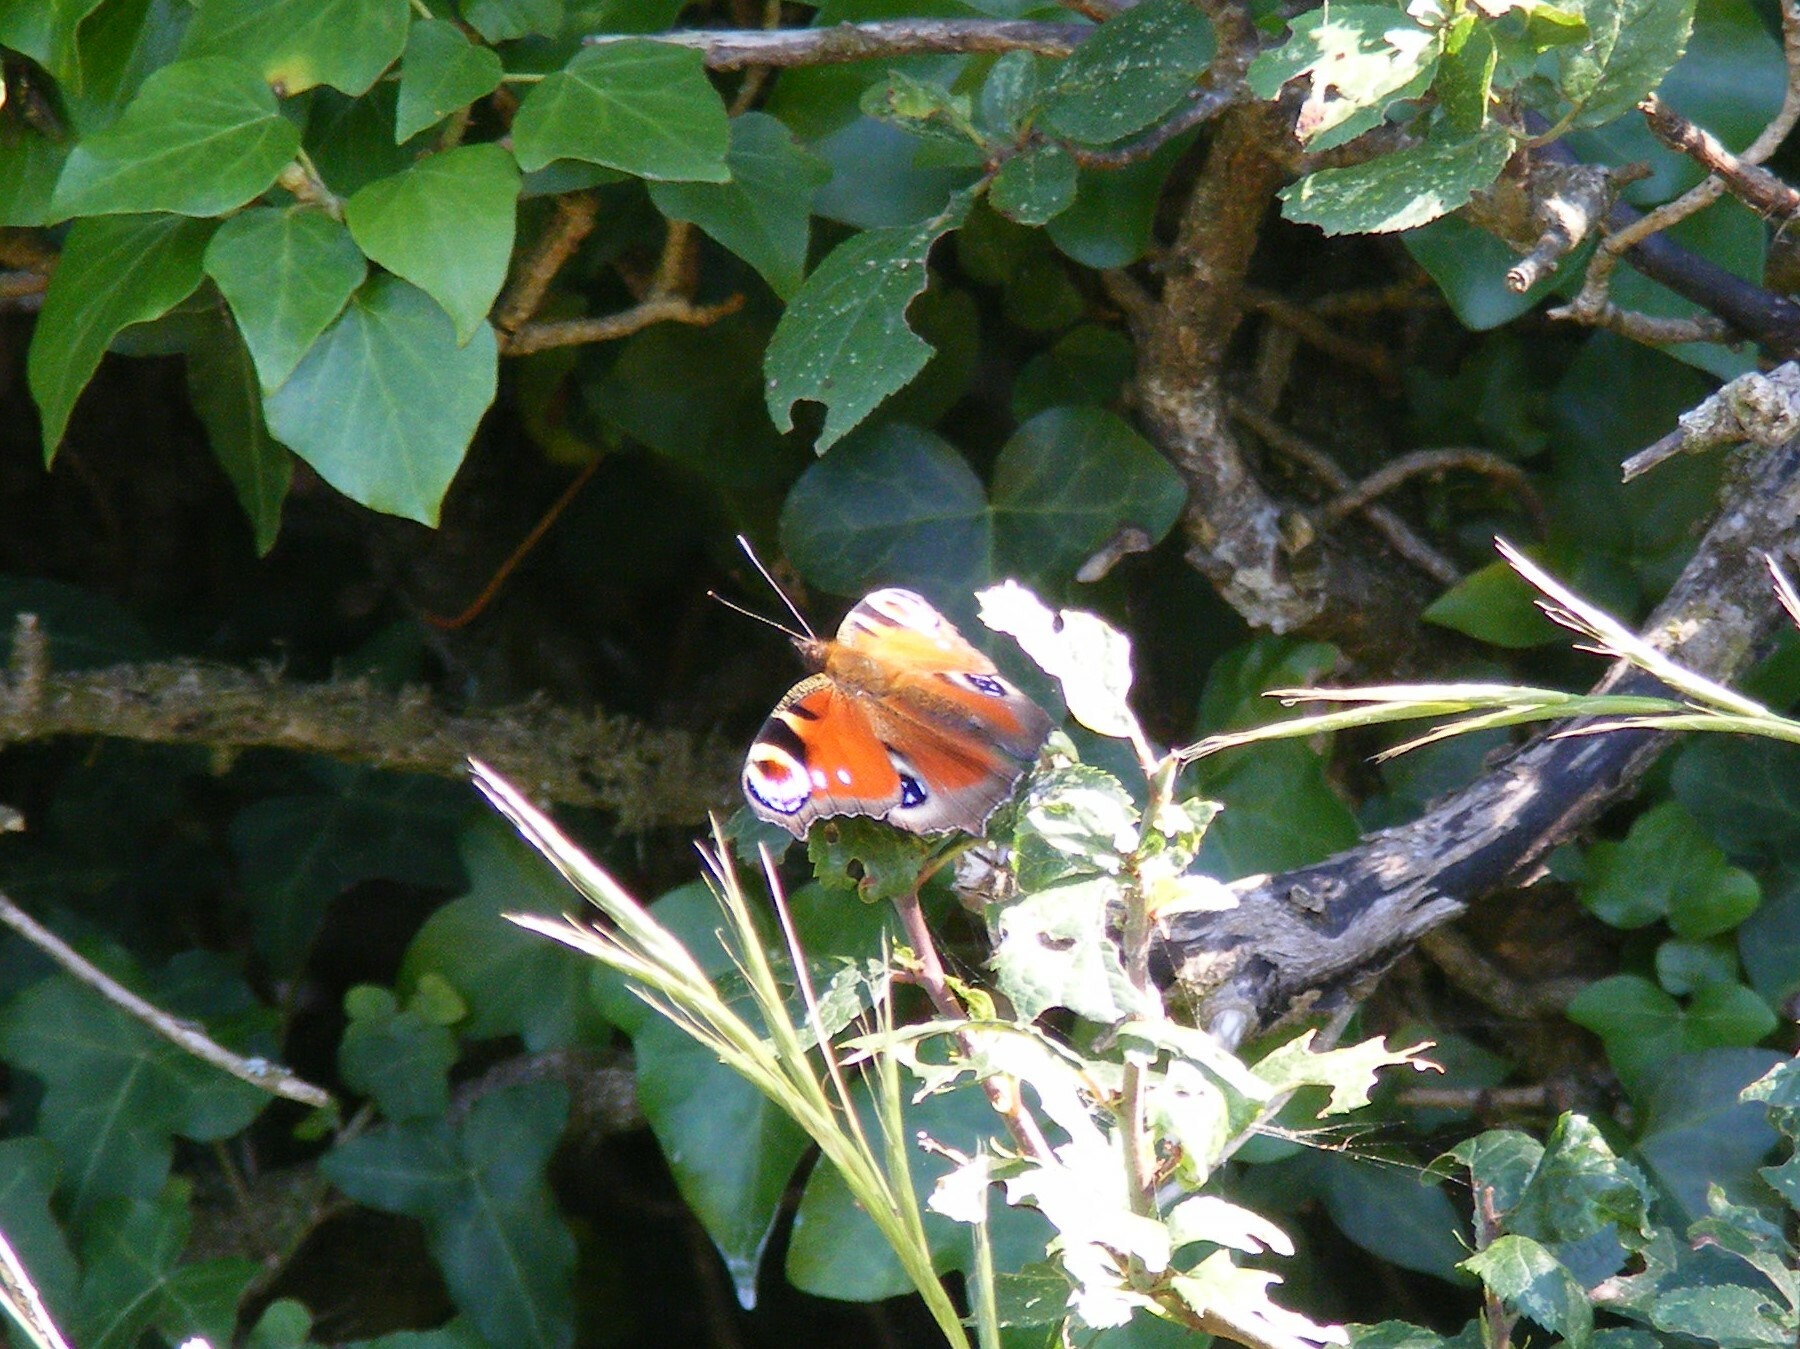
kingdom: Animalia
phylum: Arthropoda
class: Insecta
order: Lepidoptera
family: Nymphalidae
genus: Aglais
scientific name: Aglais io
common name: Peacock
